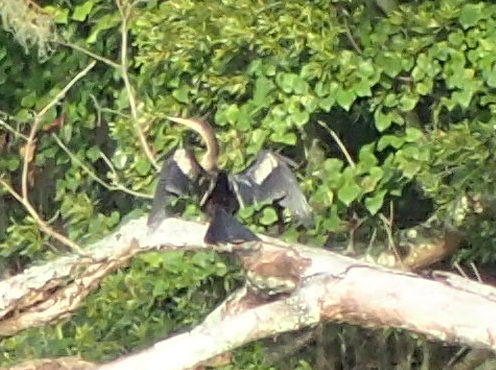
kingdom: Animalia
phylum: Chordata
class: Aves
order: Suliformes
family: Anhingidae
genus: Anhinga
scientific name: Anhinga anhinga
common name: Anhinga
